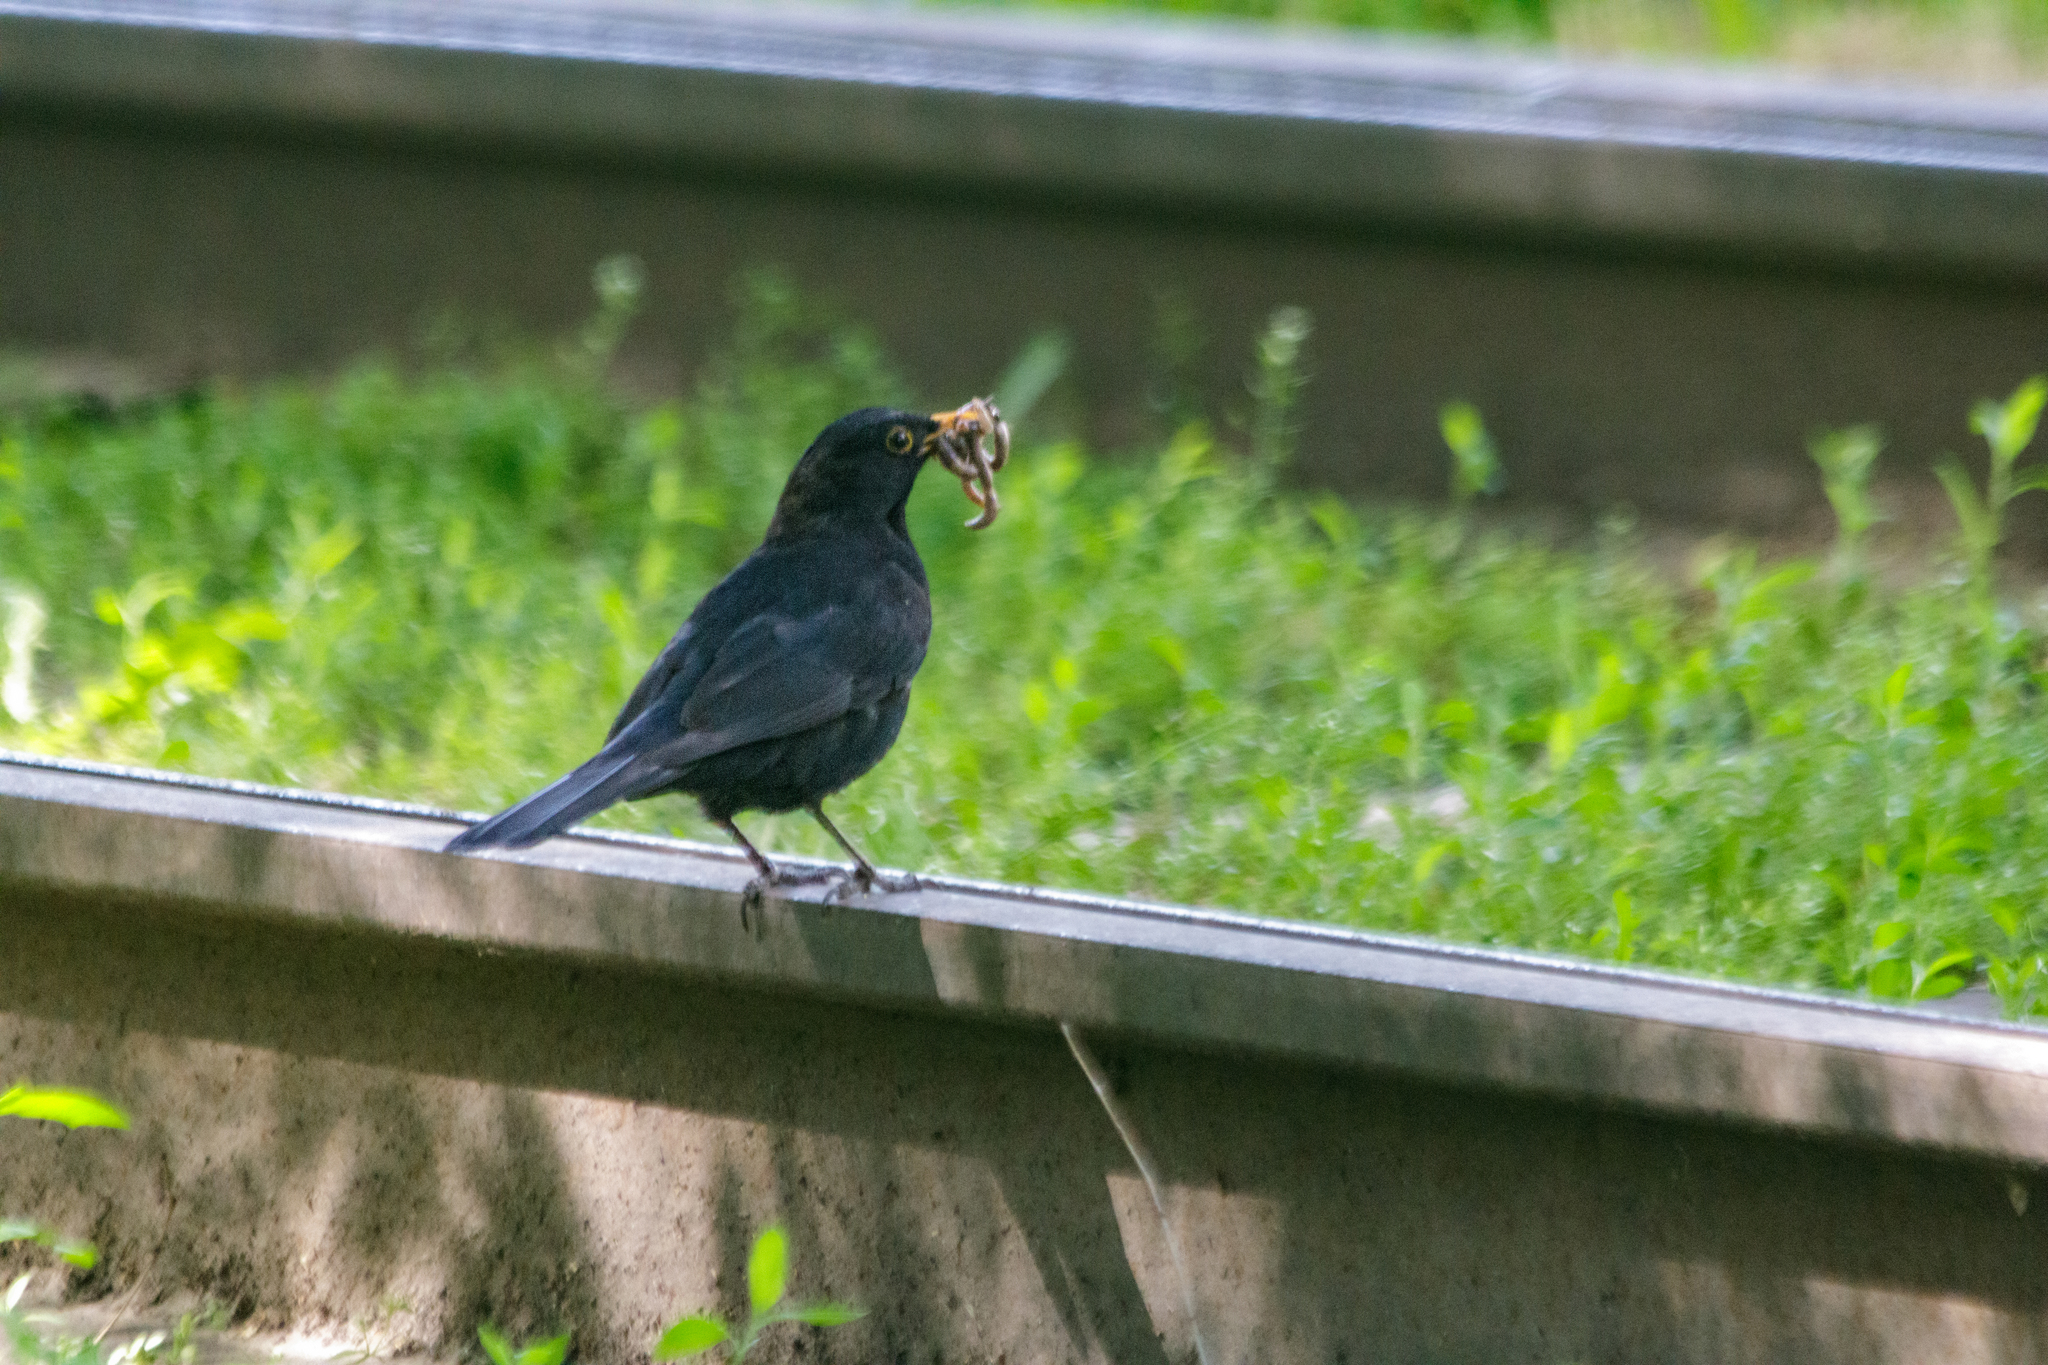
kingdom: Animalia
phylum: Chordata
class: Aves
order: Passeriformes
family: Turdidae
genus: Turdus
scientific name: Turdus merula
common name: Common blackbird
